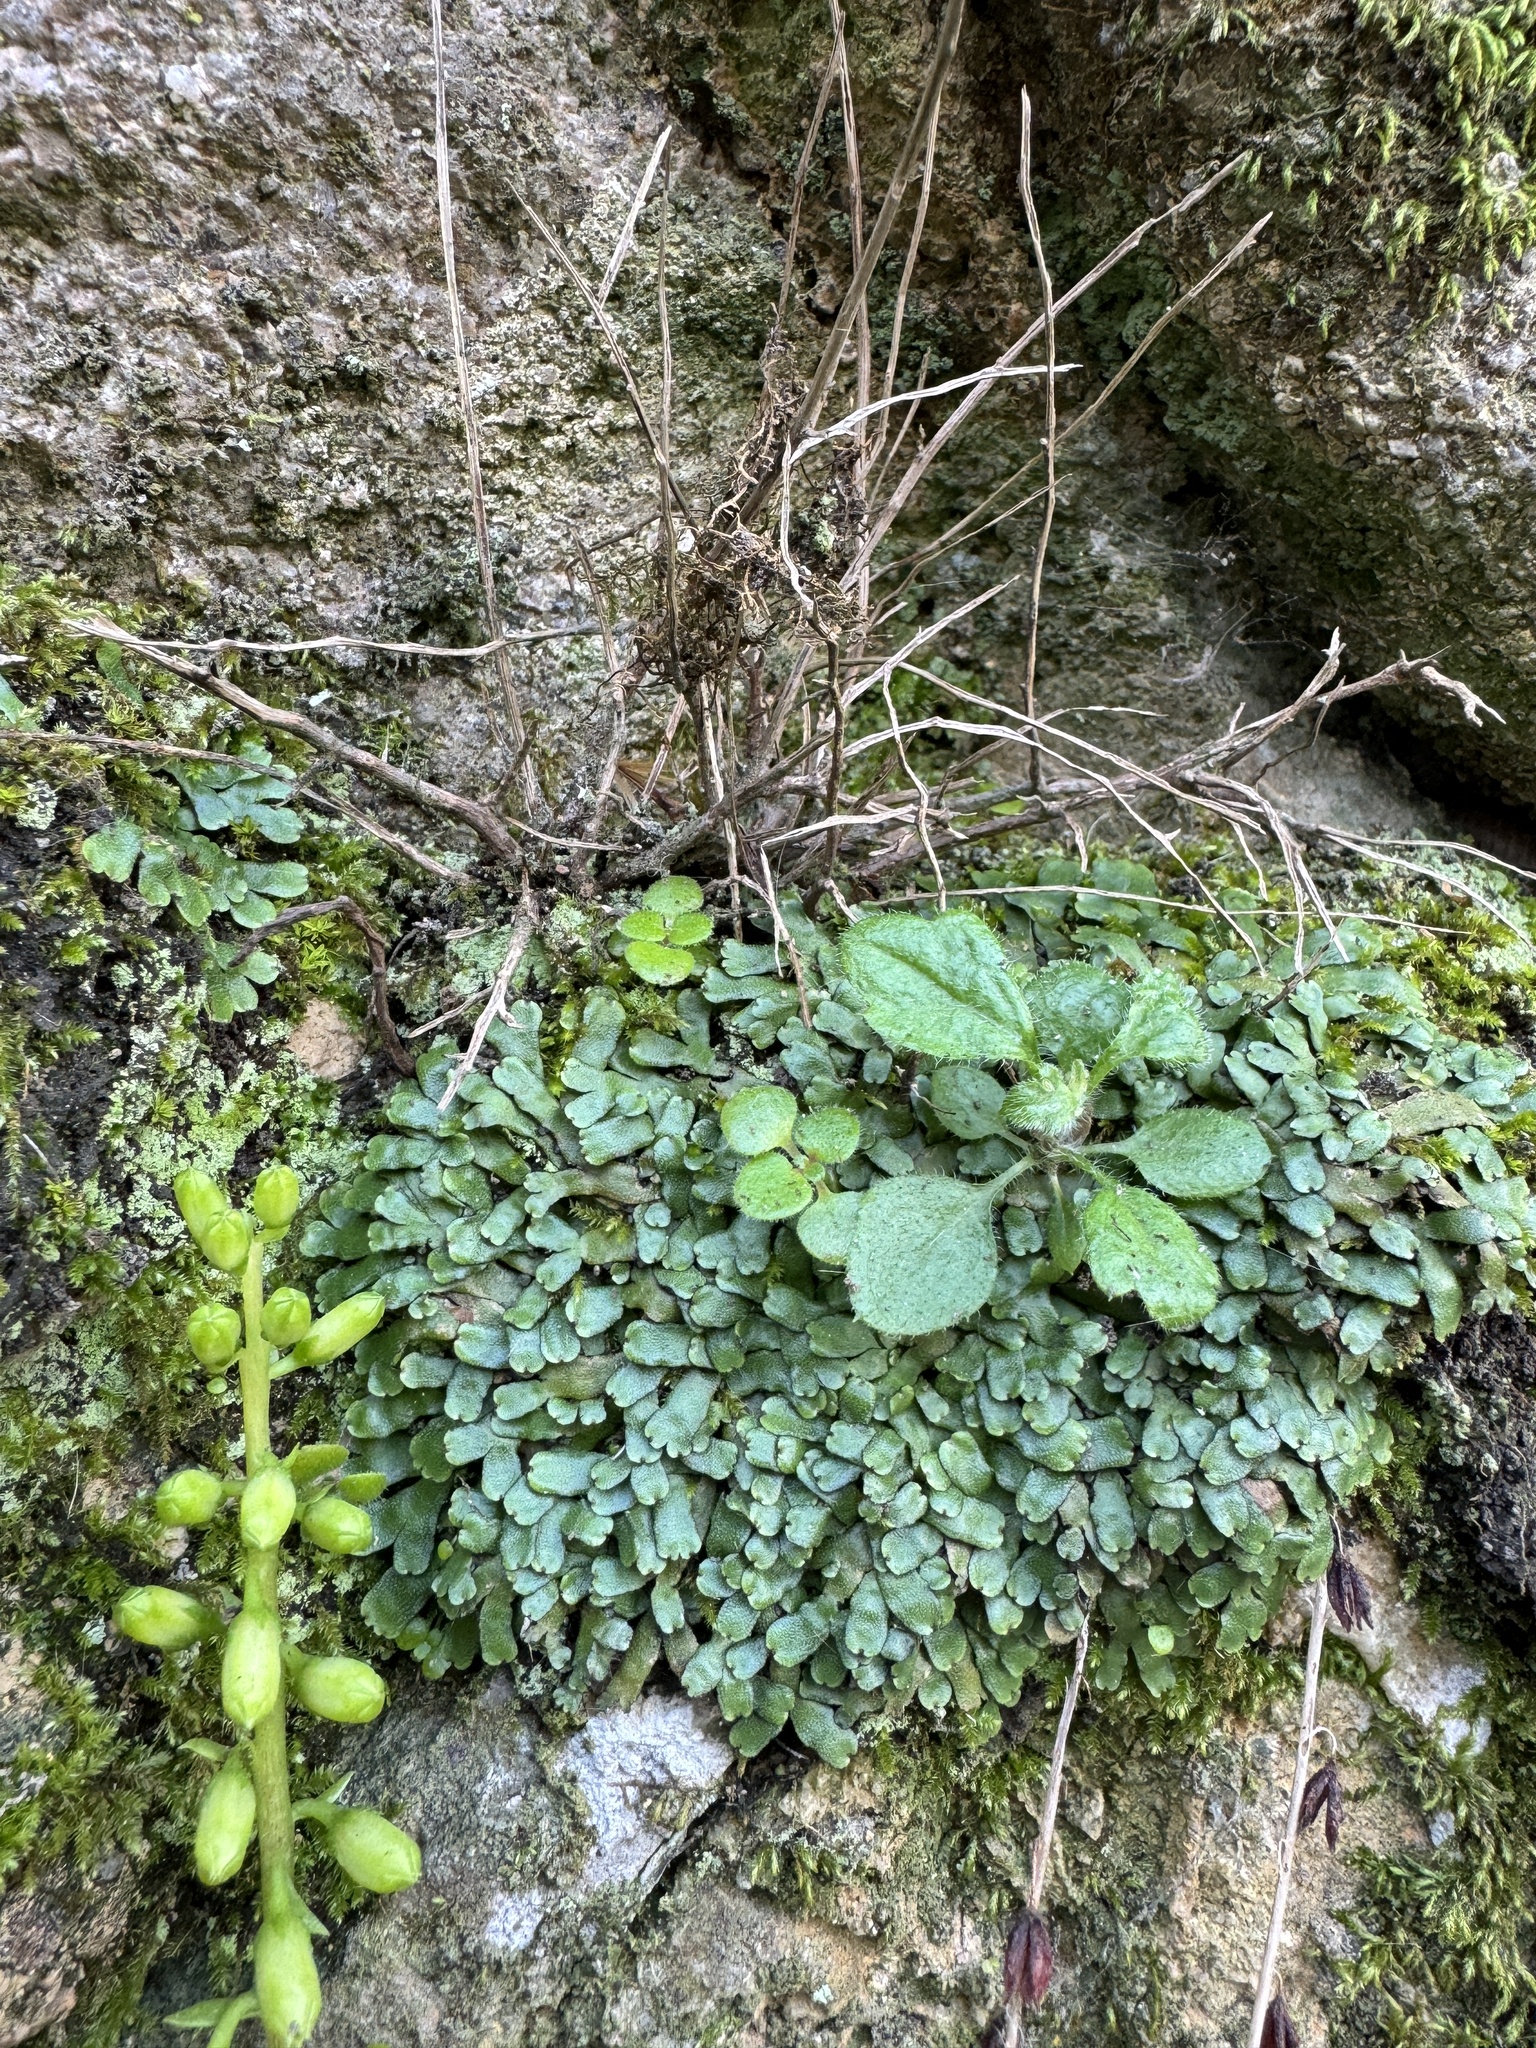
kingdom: Plantae
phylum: Marchantiophyta
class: Marchantiopsida
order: Marchantiales
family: Targioniaceae
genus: Targionia
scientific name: Targionia hypophylla
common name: Orobus-seed liverwort
